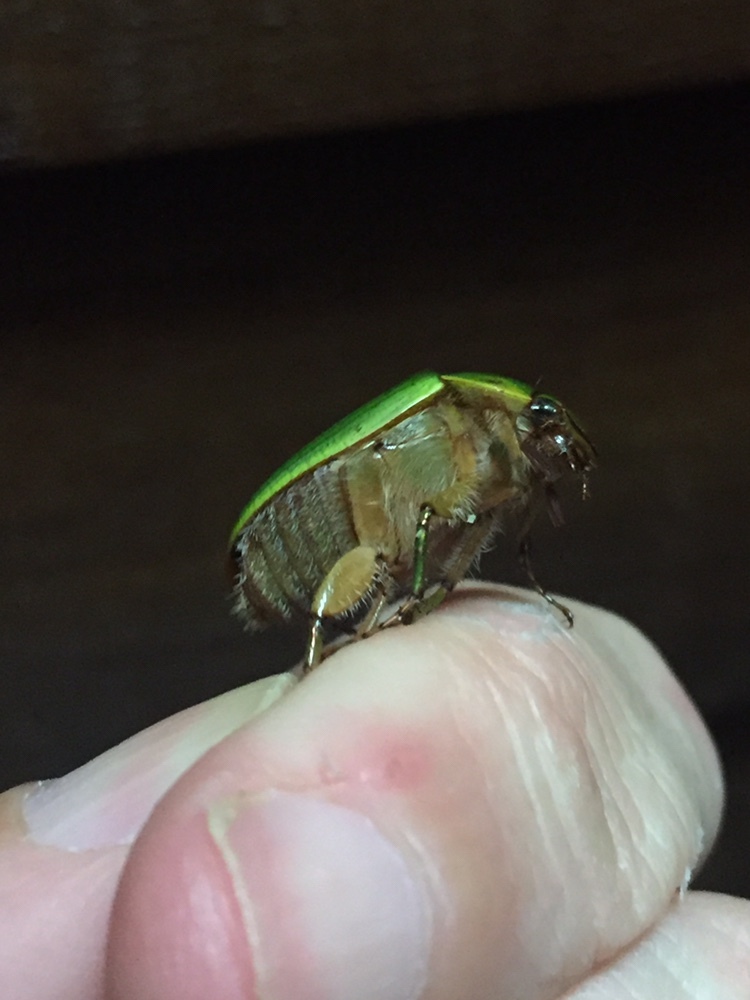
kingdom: Animalia
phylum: Arthropoda
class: Insecta
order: Coleoptera
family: Scarabaeidae
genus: Stethaspis
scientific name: Stethaspis longicornis
